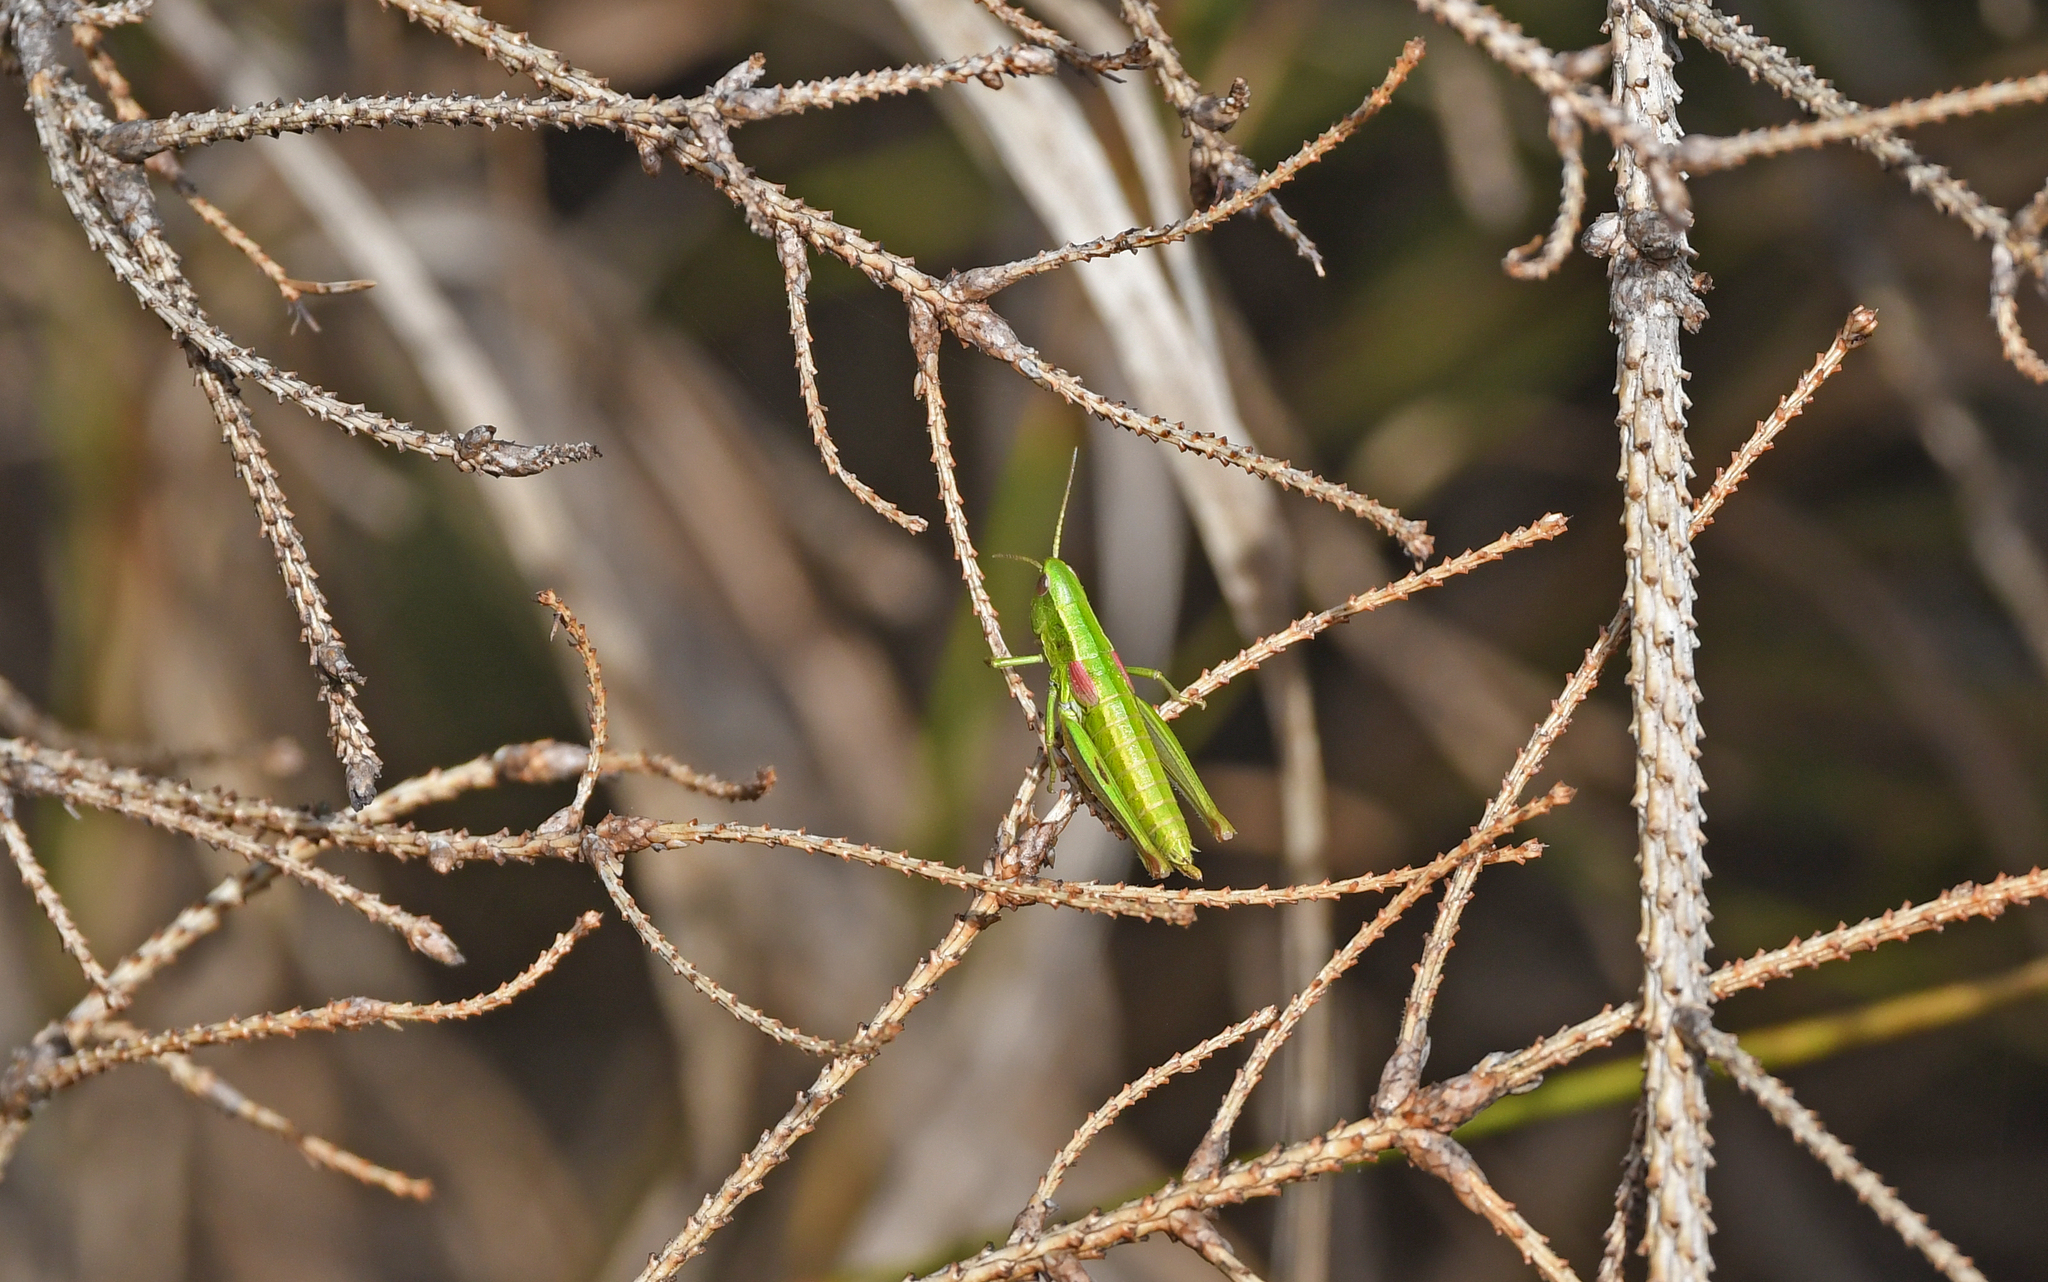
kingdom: Animalia
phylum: Arthropoda
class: Insecta
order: Orthoptera
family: Acrididae
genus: Euthystira
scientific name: Euthystira brachyptera
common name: Small gold grasshopper
